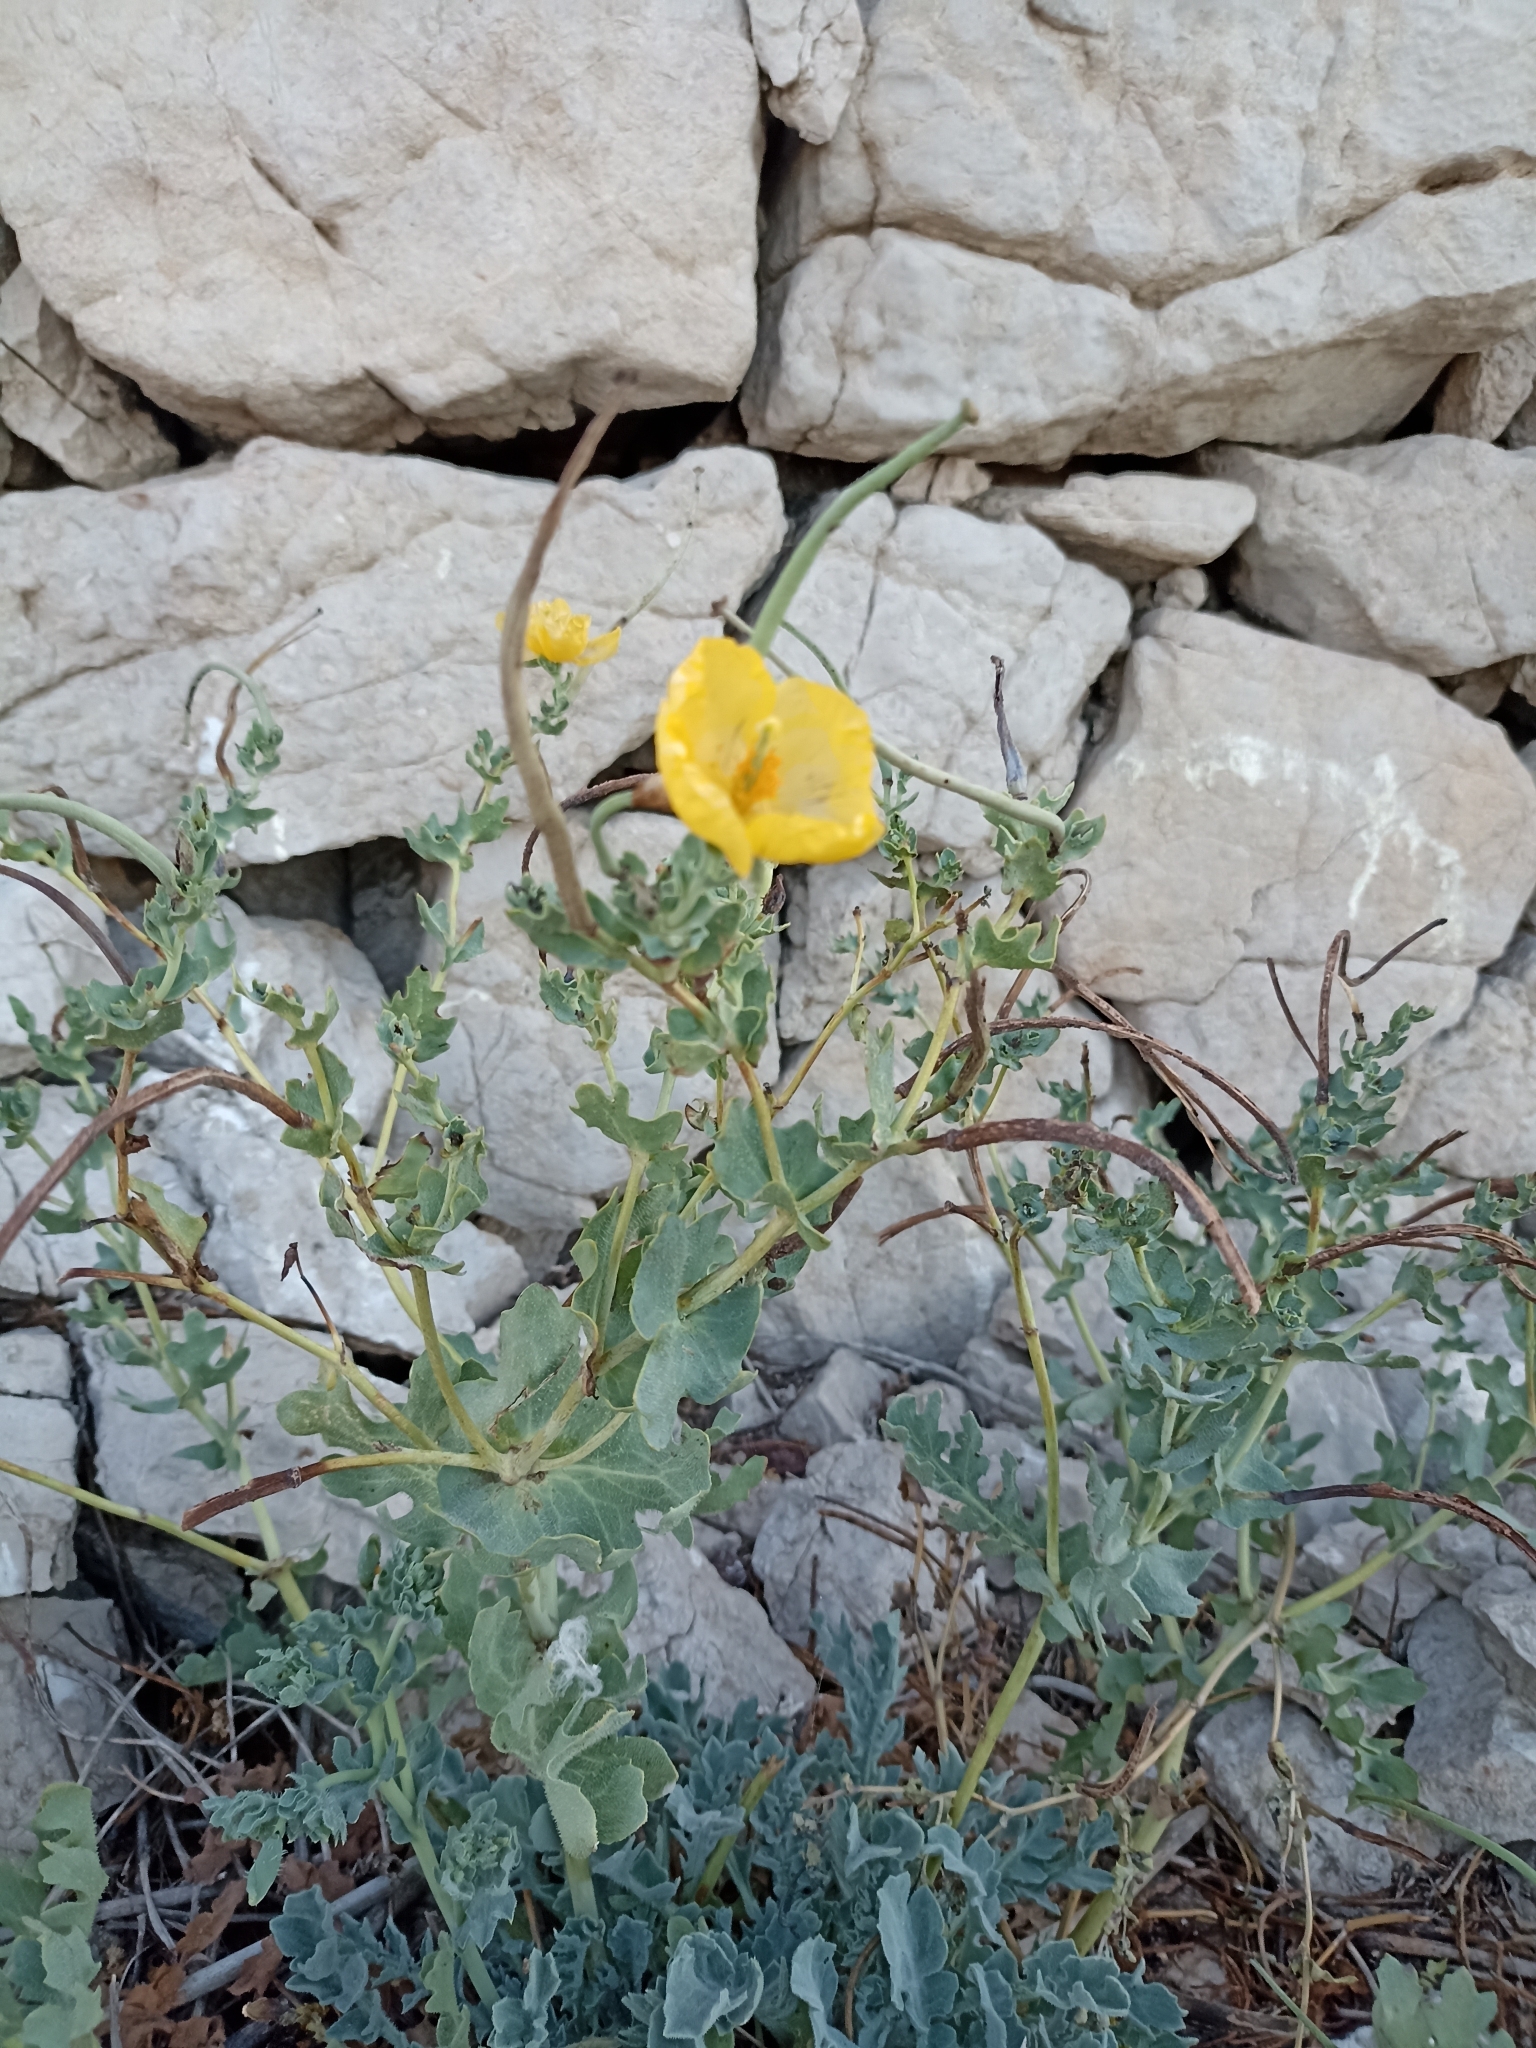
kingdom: Plantae
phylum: Tracheophyta
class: Magnoliopsida
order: Ranunculales
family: Papaveraceae
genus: Glaucium
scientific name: Glaucium flavum
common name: Yellow horned-poppy
